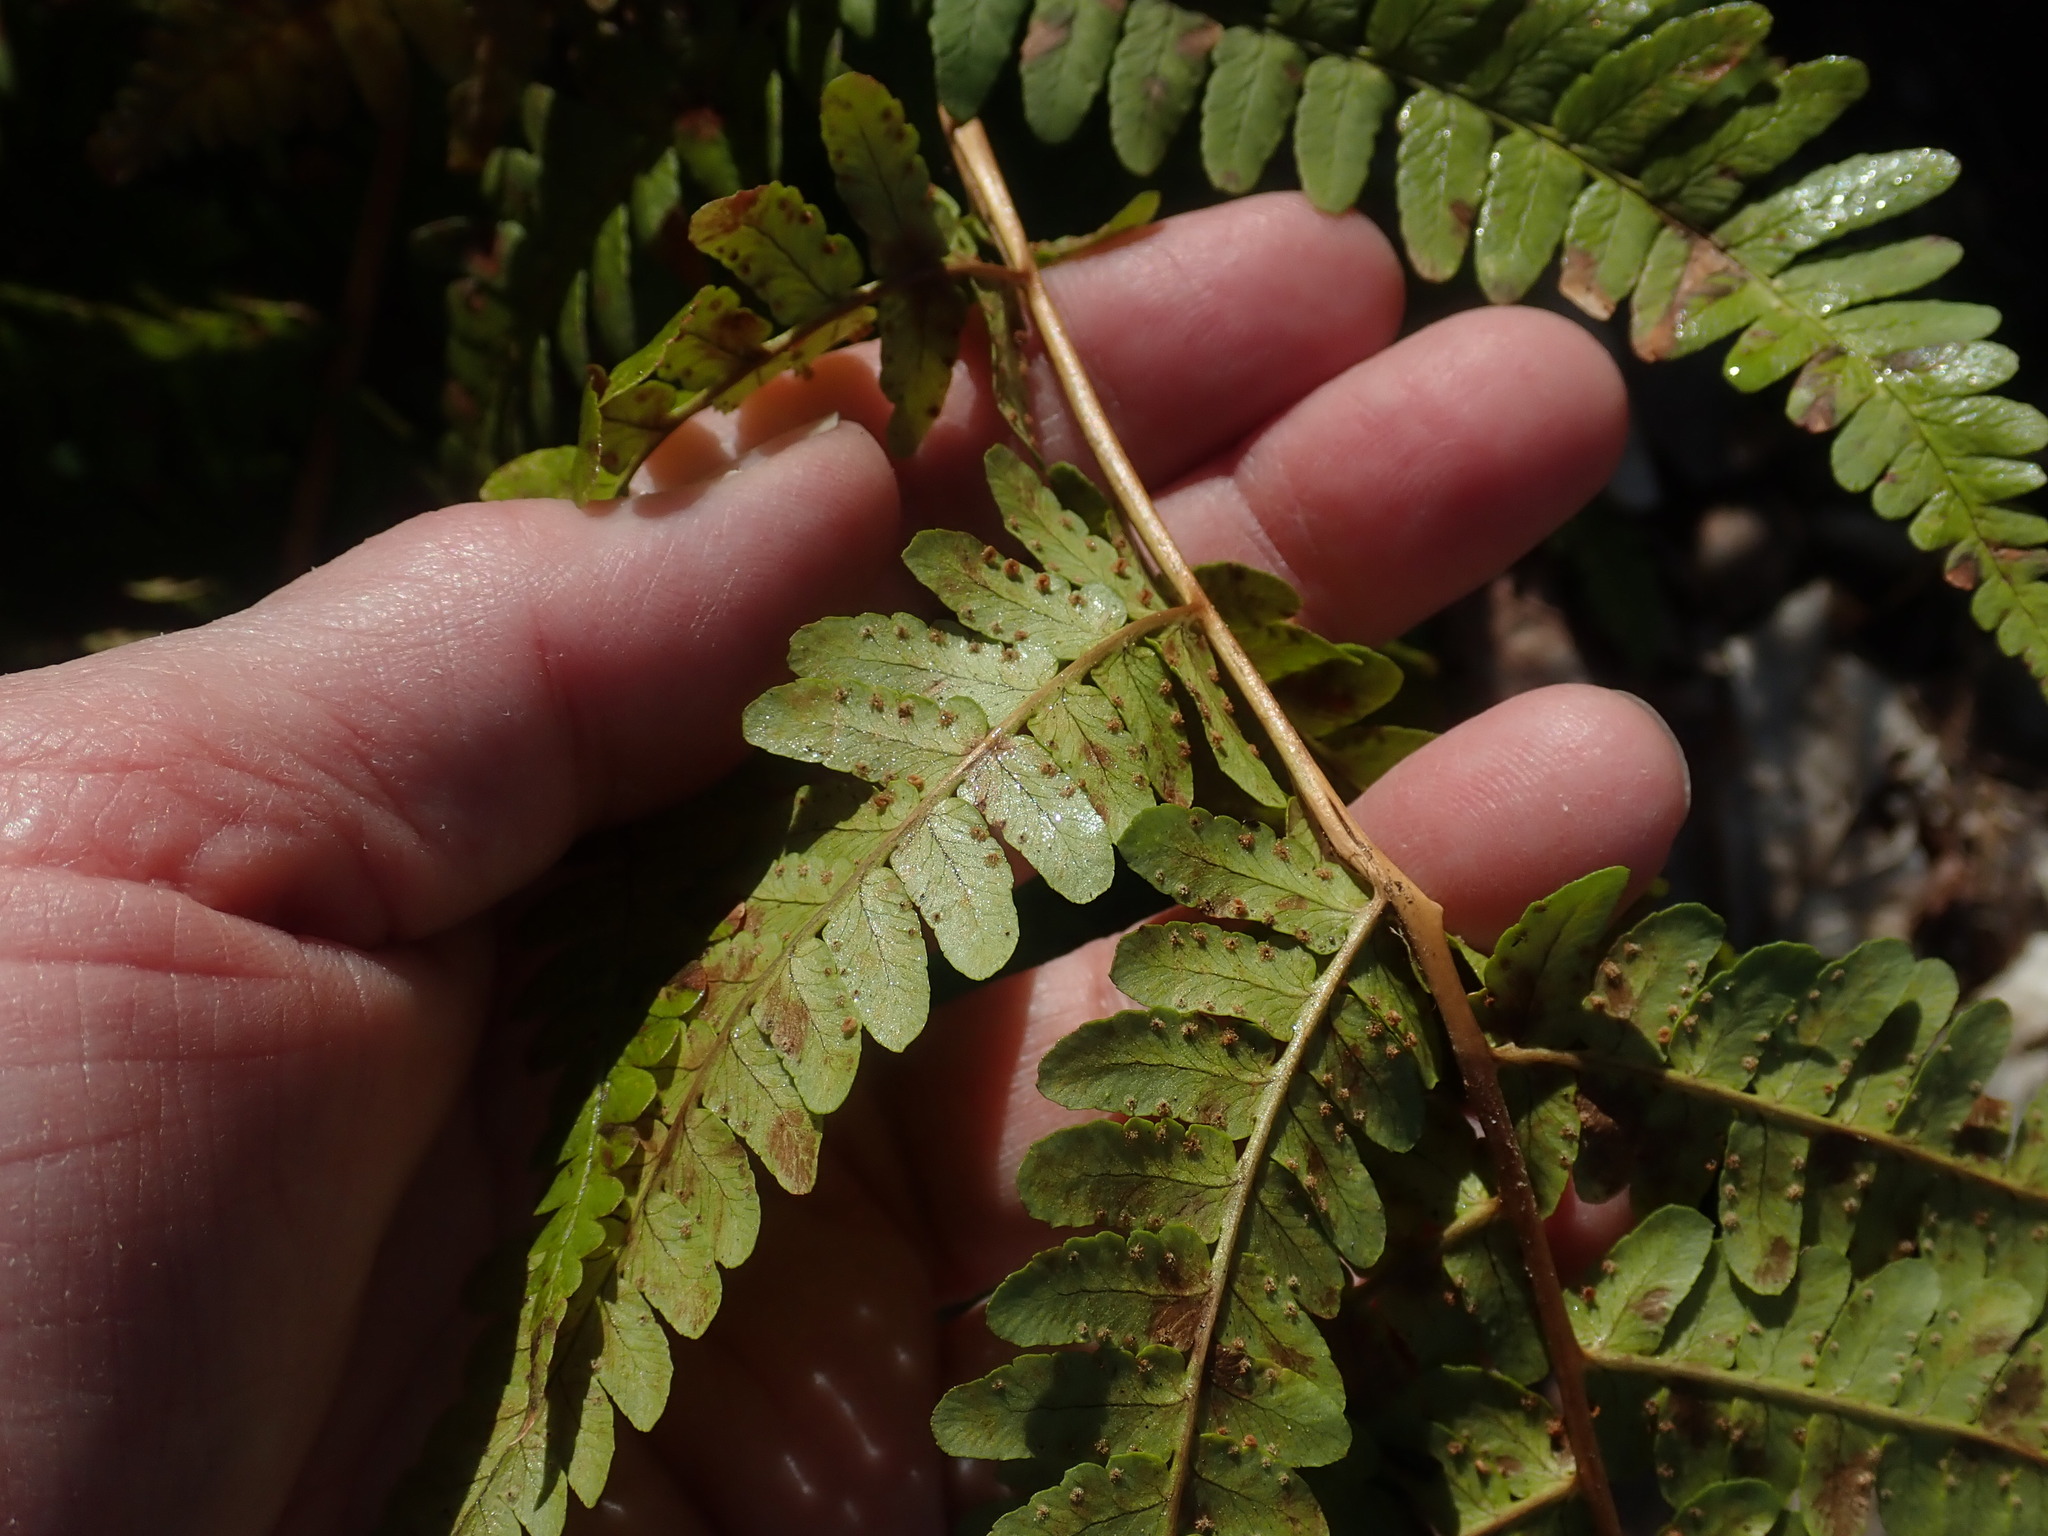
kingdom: Plantae
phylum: Tracheophyta
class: Polypodiopsida
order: Polypodiales
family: Dryopteridaceae
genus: Dryopteris
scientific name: Dryopteris marginalis
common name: Marginal wood fern
